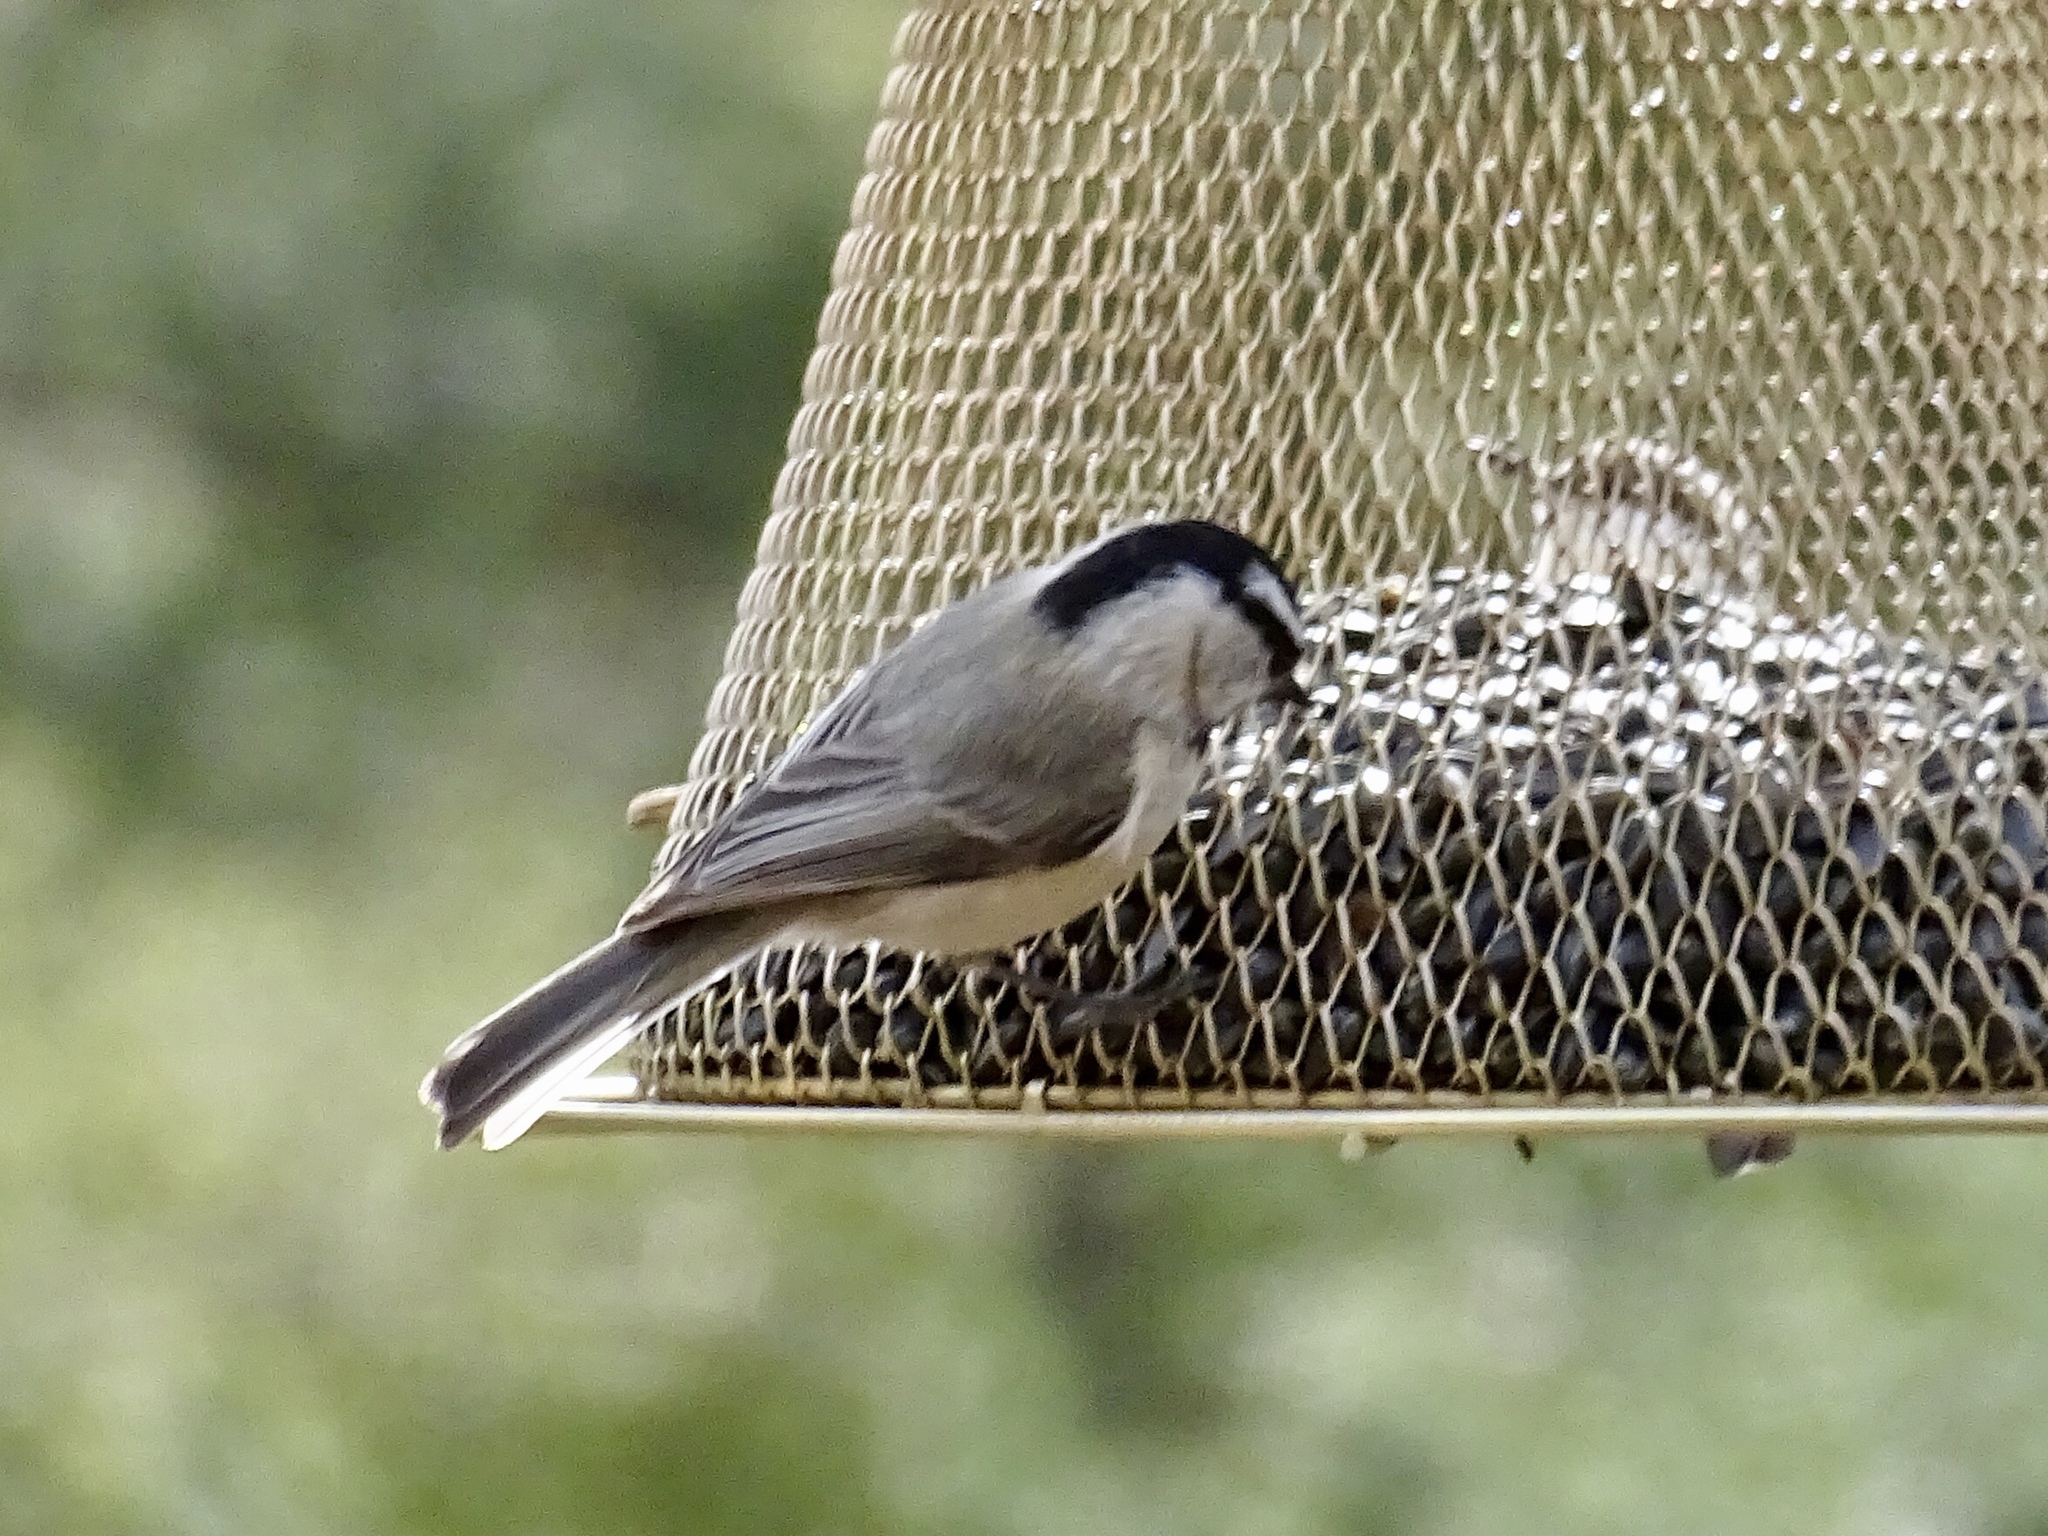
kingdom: Animalia
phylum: Chordata
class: Aves
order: Passeriformes
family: Paridae
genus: Poecile
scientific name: Poecile gambeli
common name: Mountain chickadee
